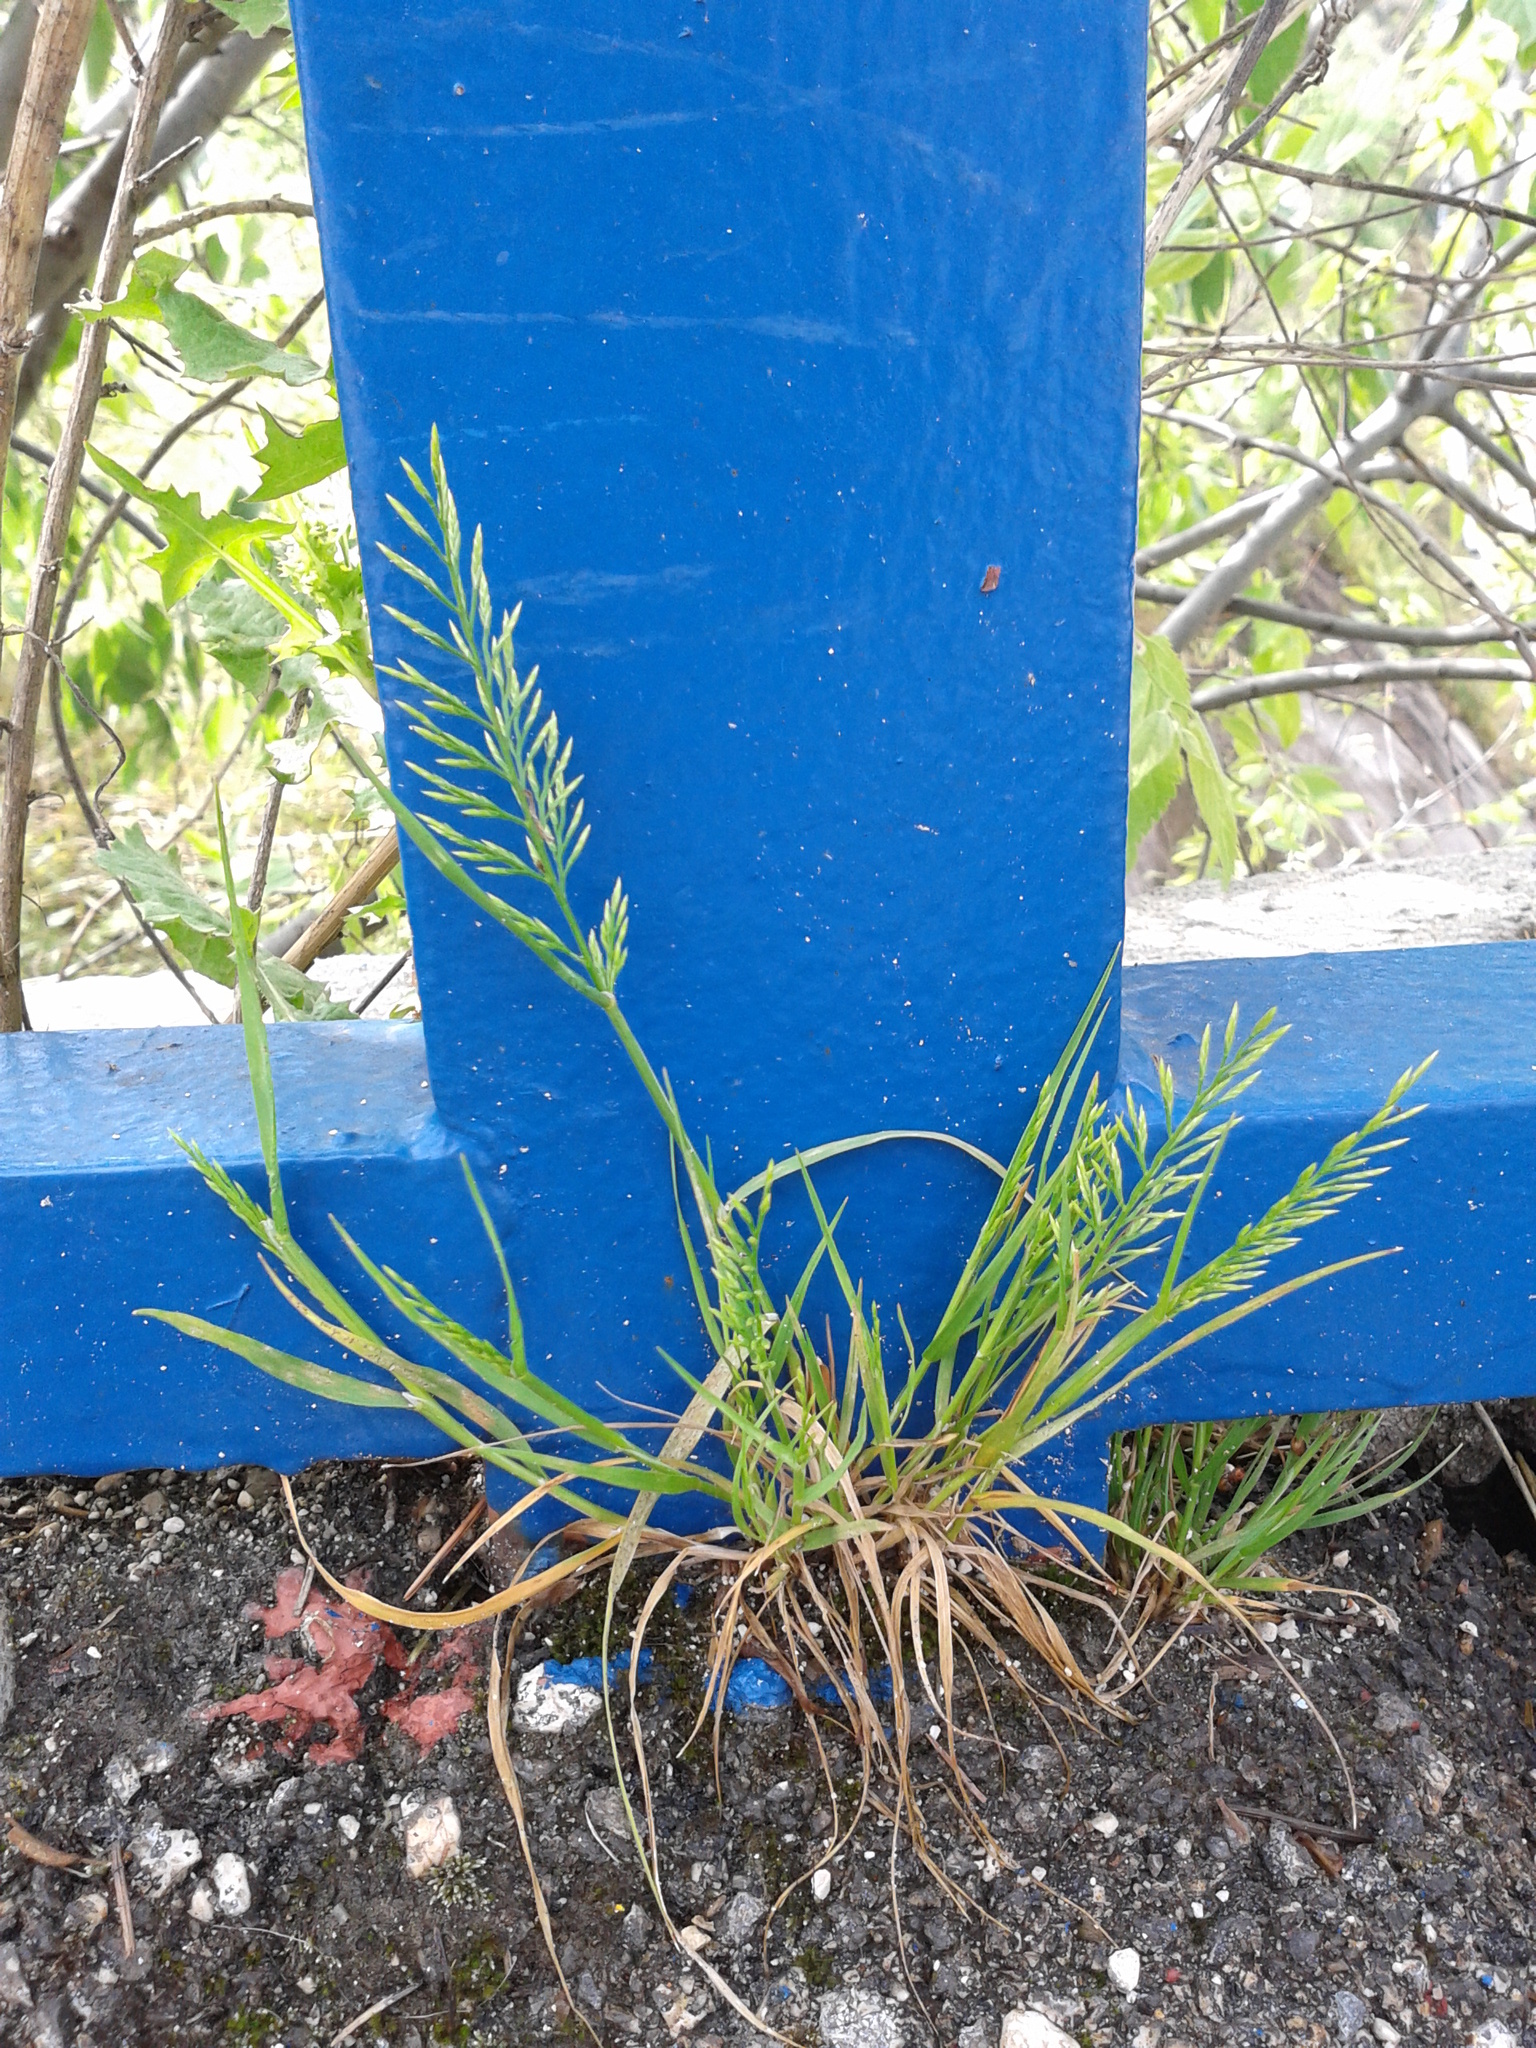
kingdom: Plantae
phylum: Tracheophyta
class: Liliopsida
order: Poales
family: Poaceae
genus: Catapodium
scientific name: Catapodium rigidum
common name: Fern-grass
